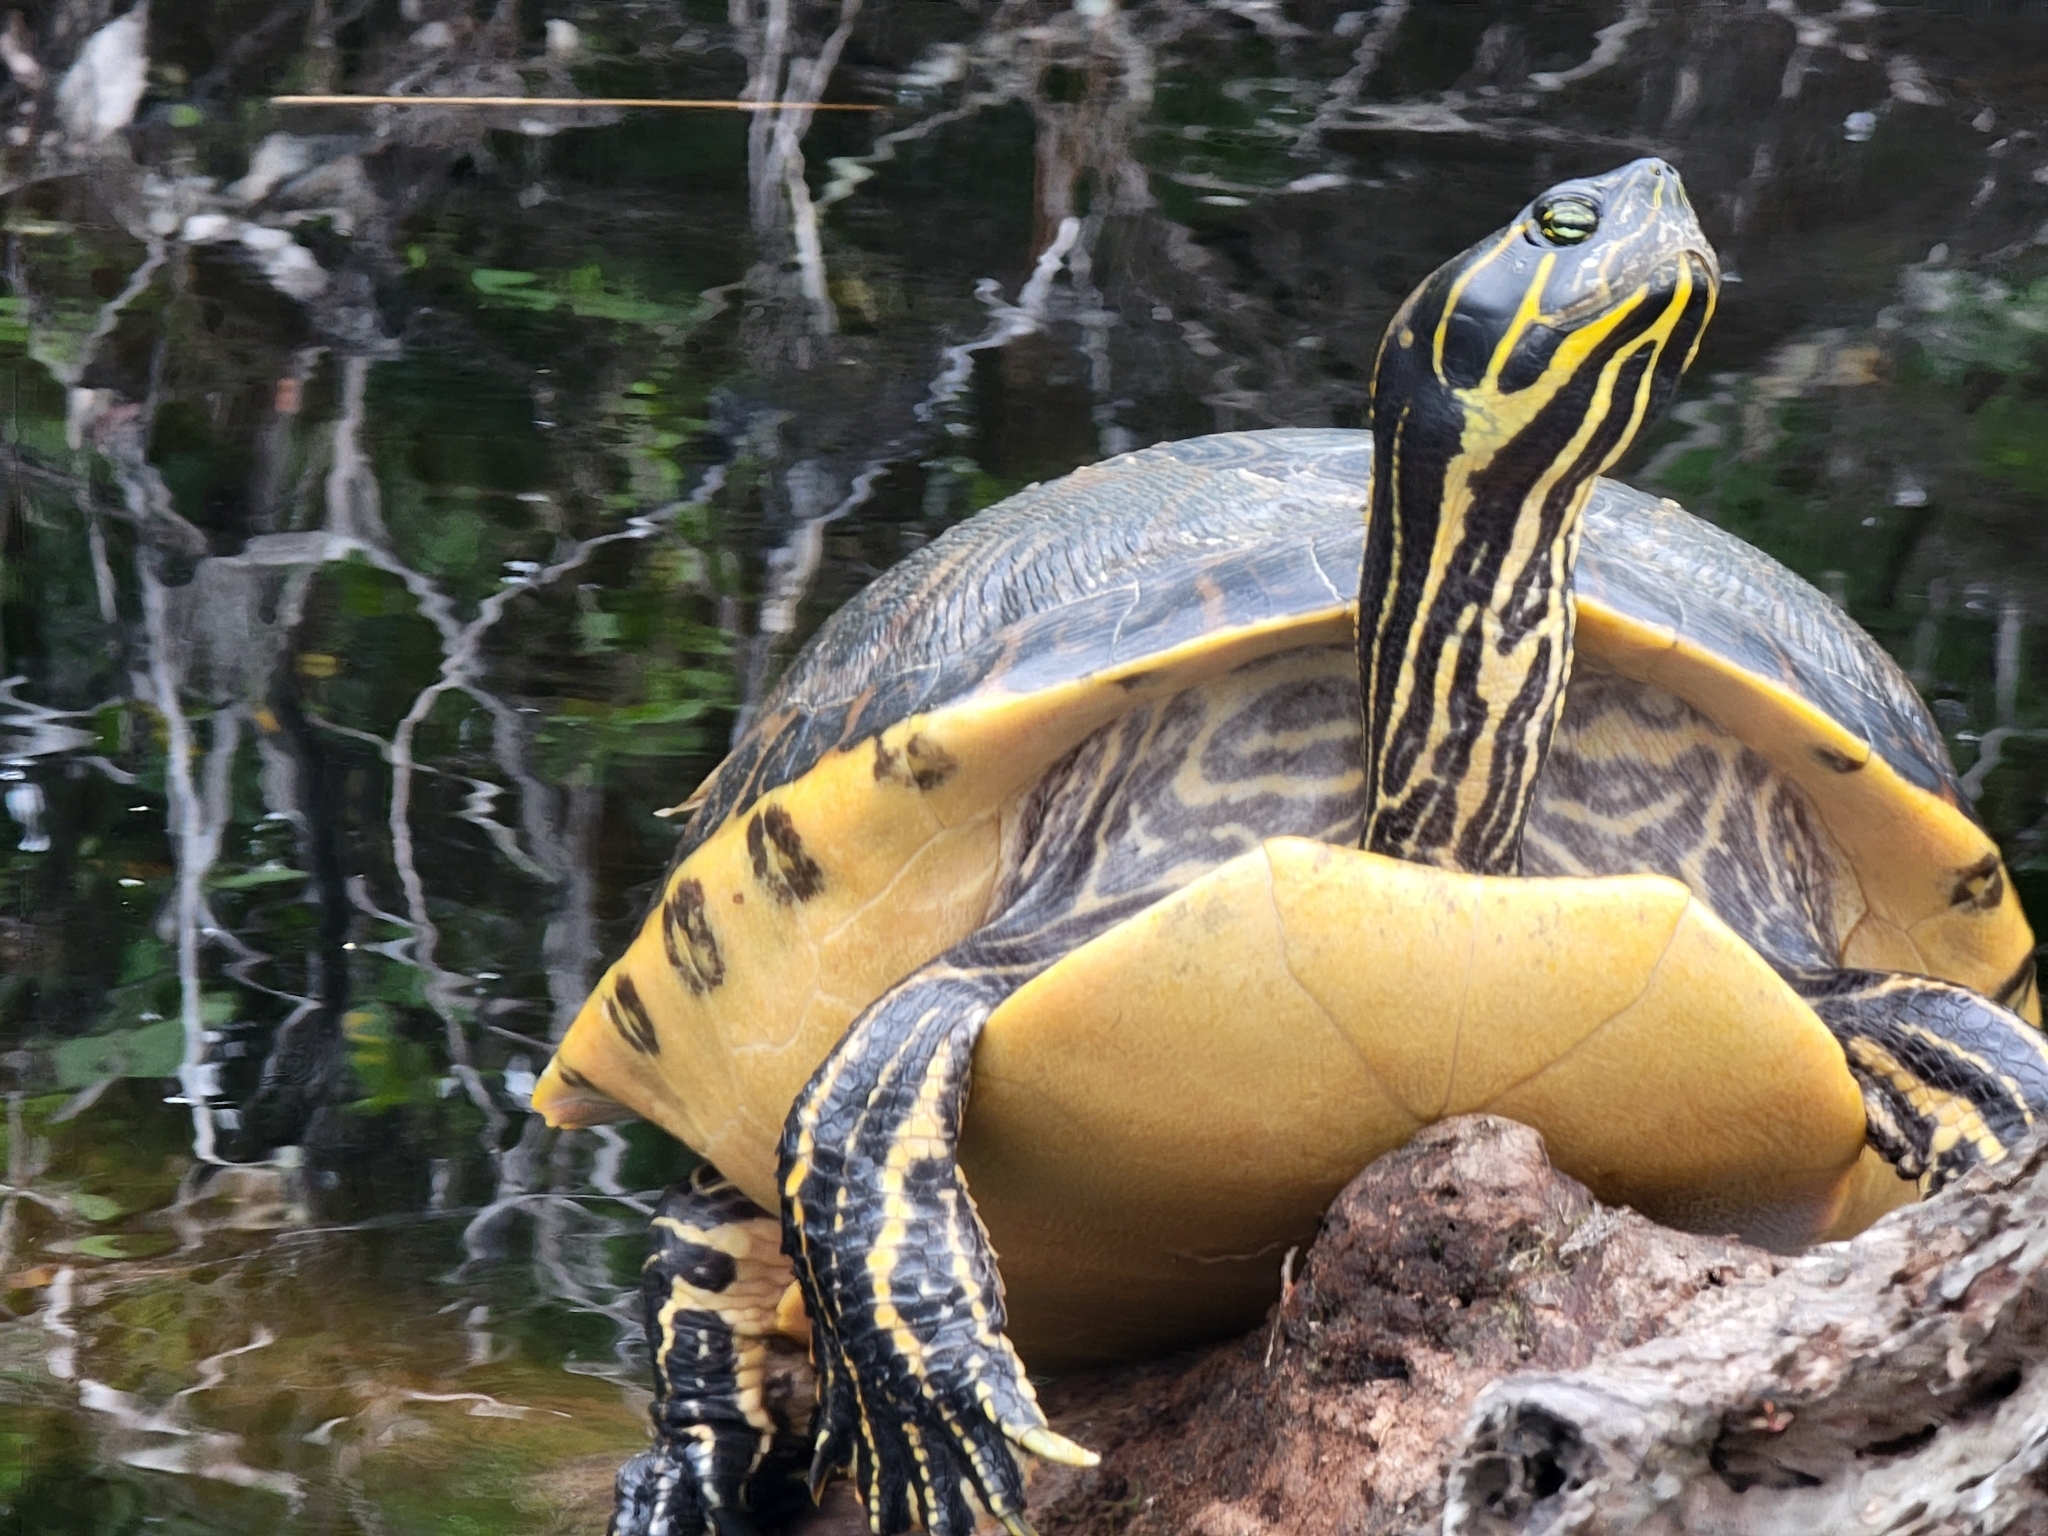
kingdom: Animalia
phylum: Chordata
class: Testudines
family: Emydidae
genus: Pseudemys
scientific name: Pseudemys concinna
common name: Eastern river cooter
